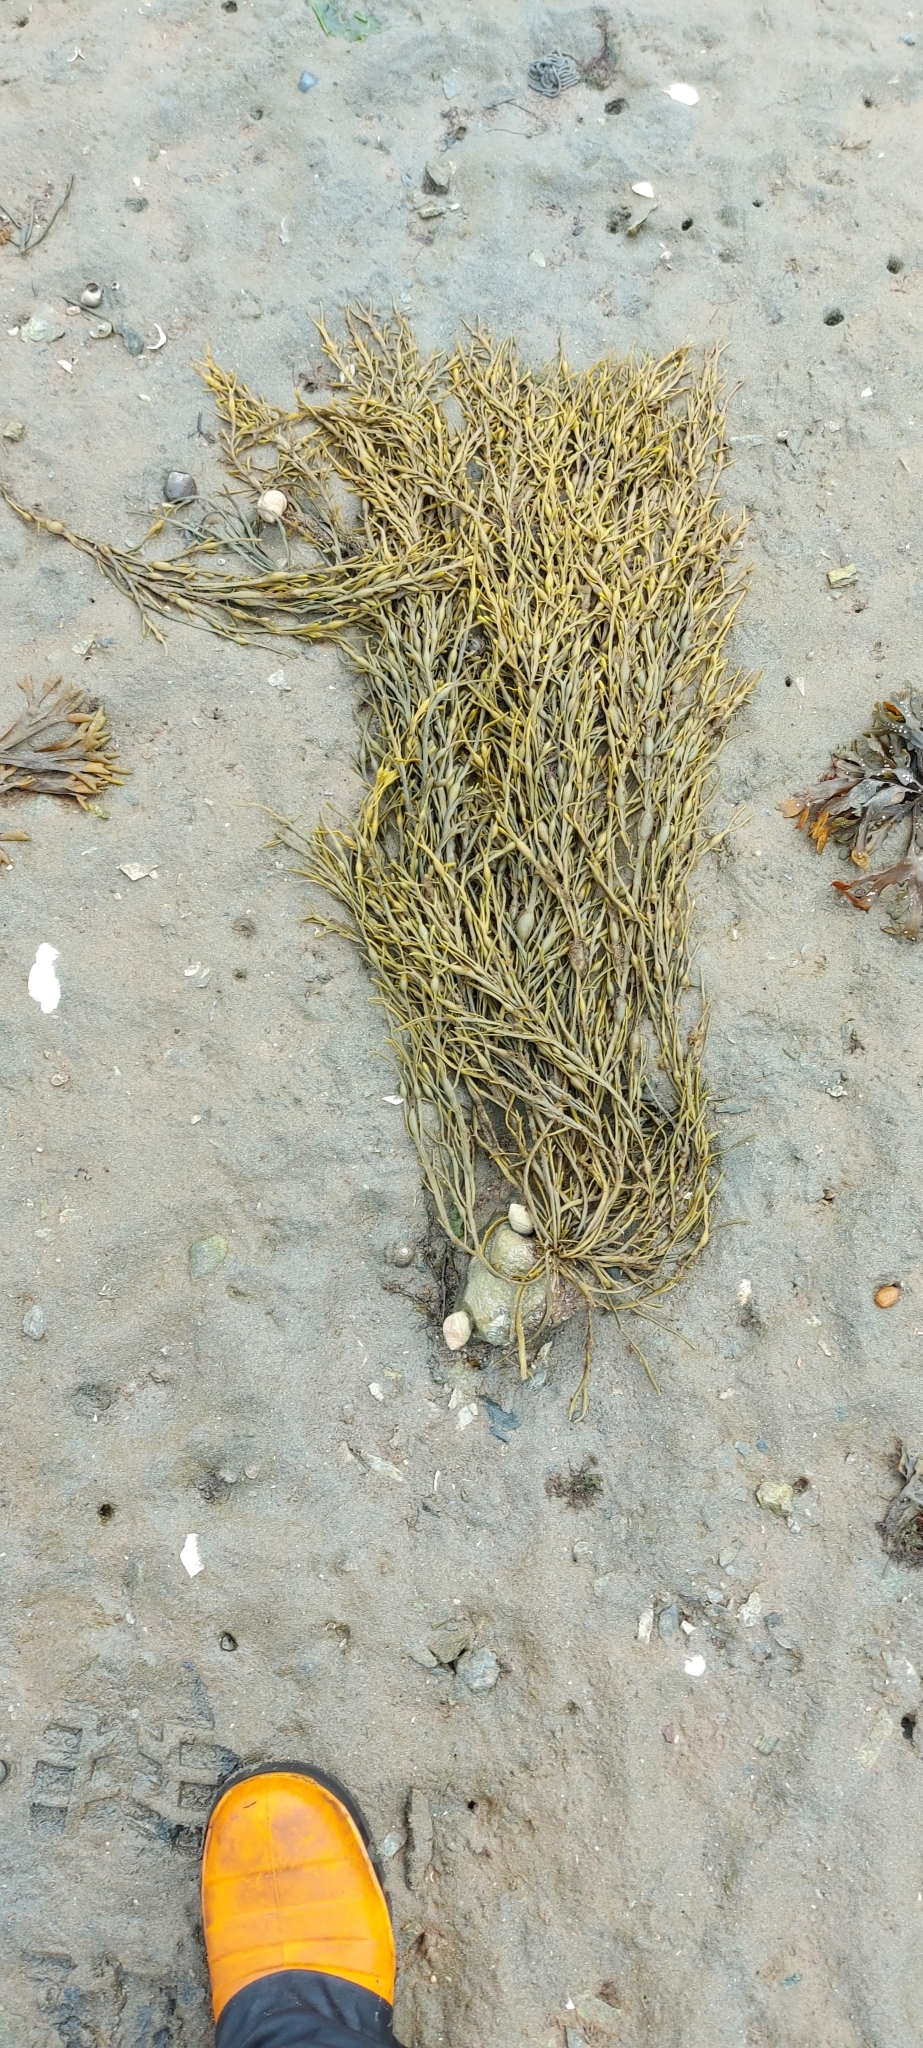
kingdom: Chromista
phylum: Ochrophyta
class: Phaeophyceae
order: Fucales
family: Fucaceae
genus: Ascophyllum
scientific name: Ascophyllum nodosum
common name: Knotted wrack
